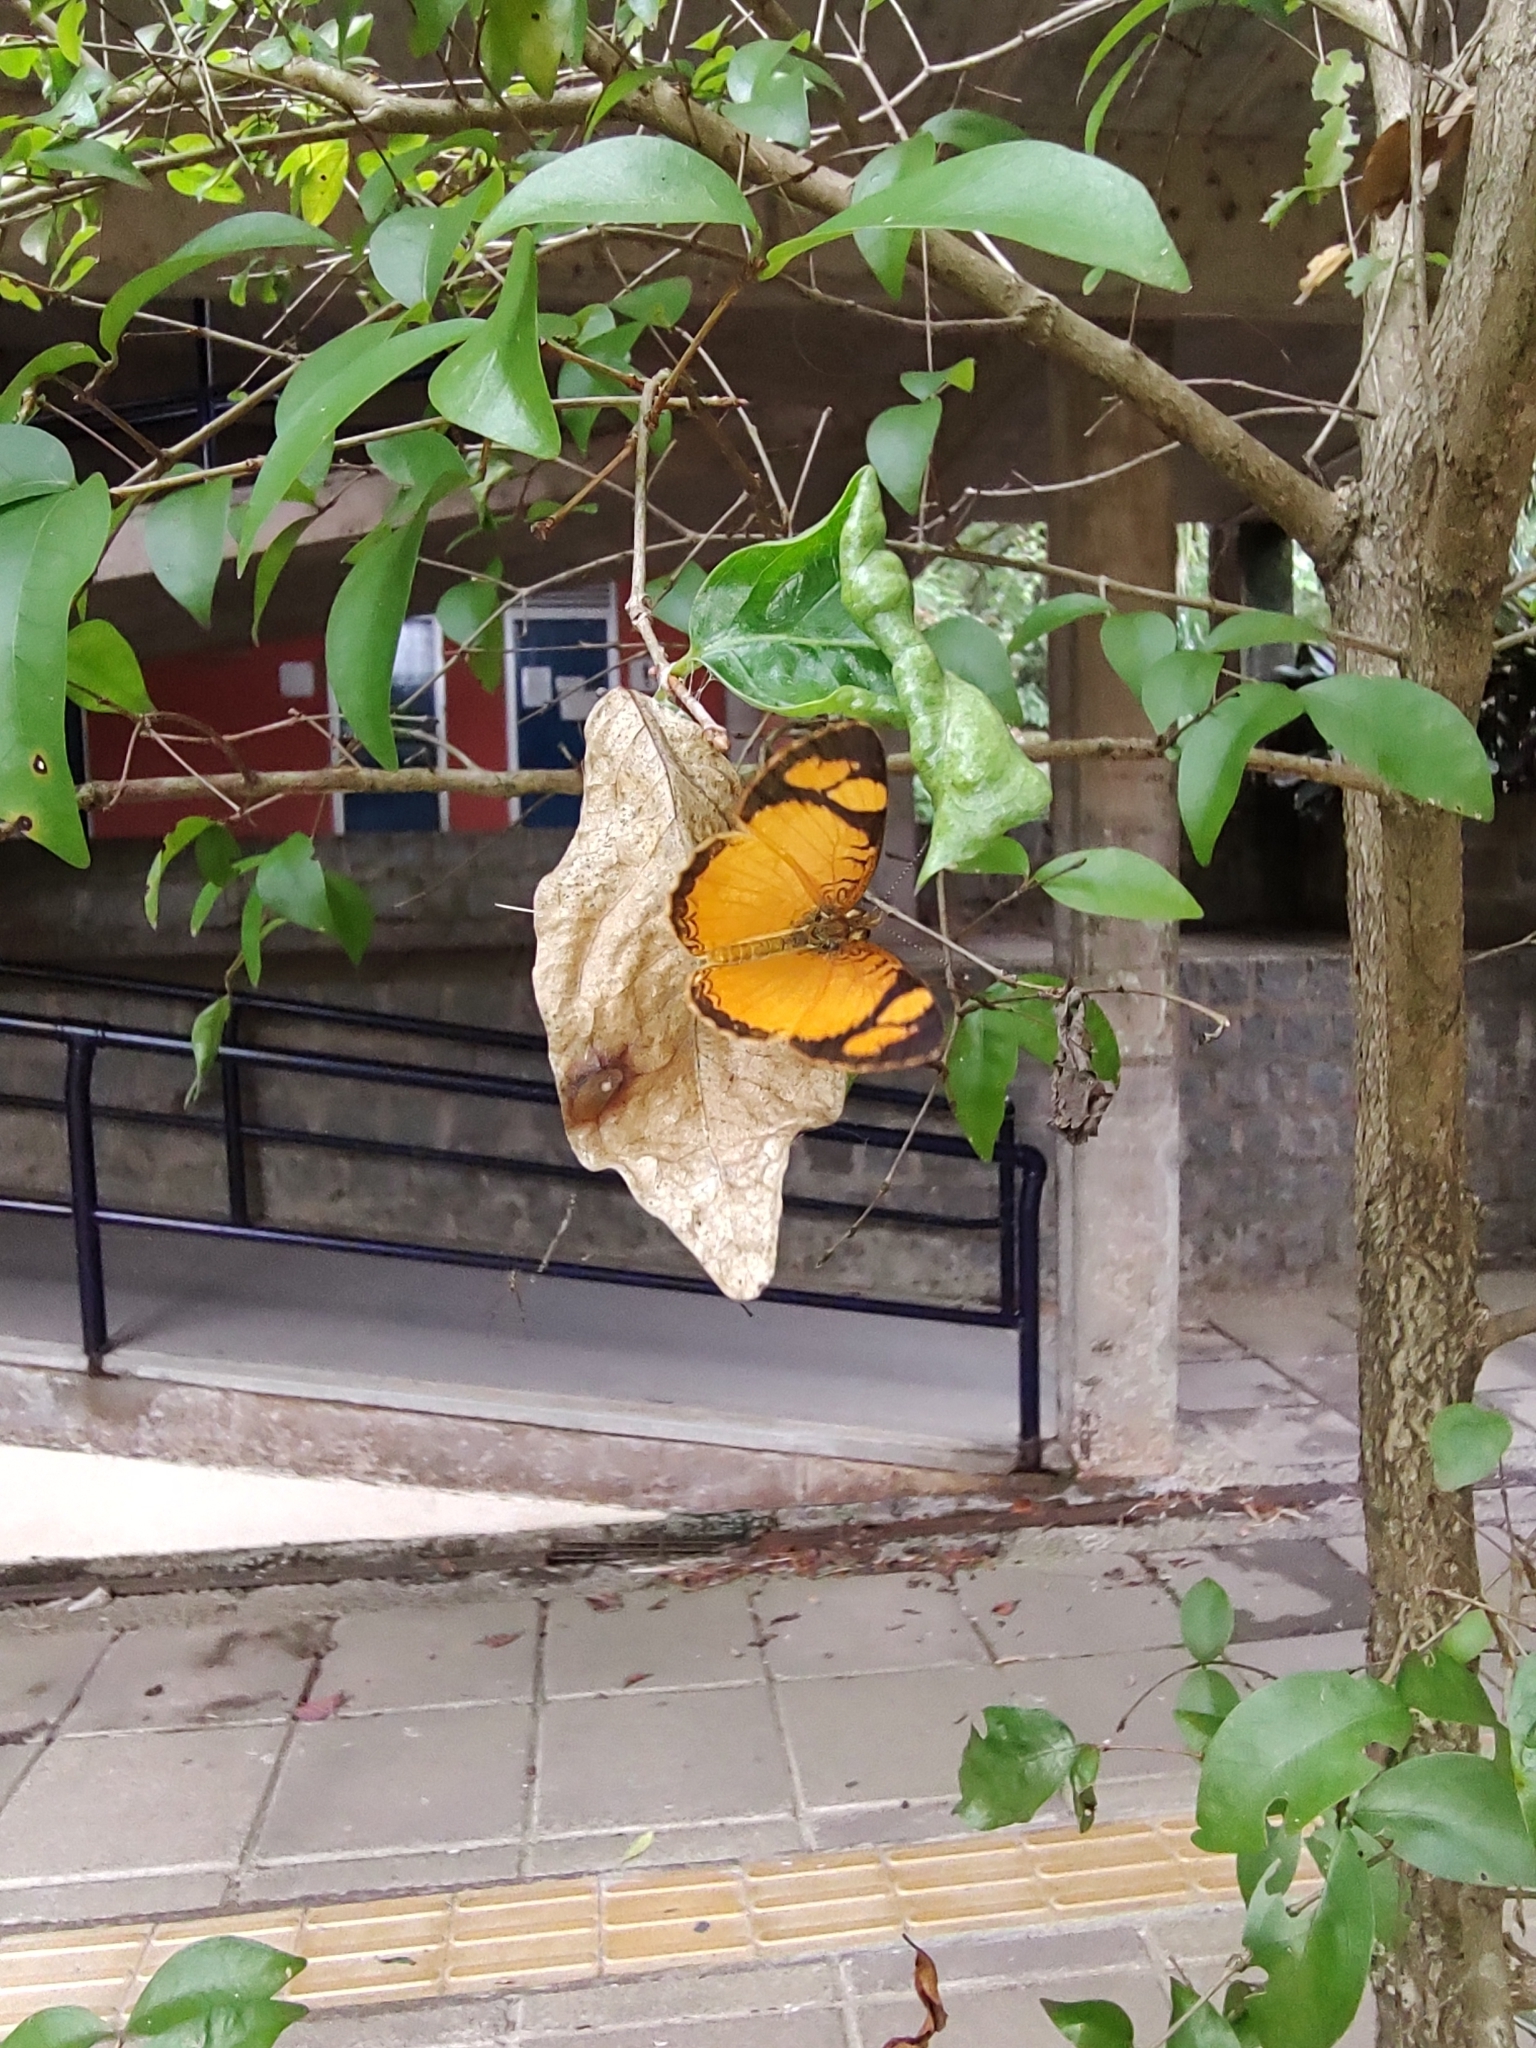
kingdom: Animalia
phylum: Arthropoda
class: Insecta
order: Lepidoptera
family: Nymphalidae
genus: Tegosa
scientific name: Tegosa claudina
